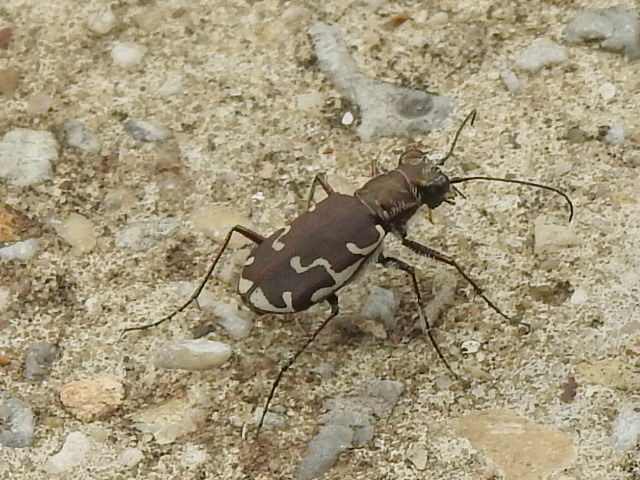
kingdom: Animalia
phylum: Arthropoda
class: Insecta
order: Coleoptera
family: Carabidae
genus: Cicindela
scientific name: Cicindela repanda
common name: Bronzed tiger beetle
